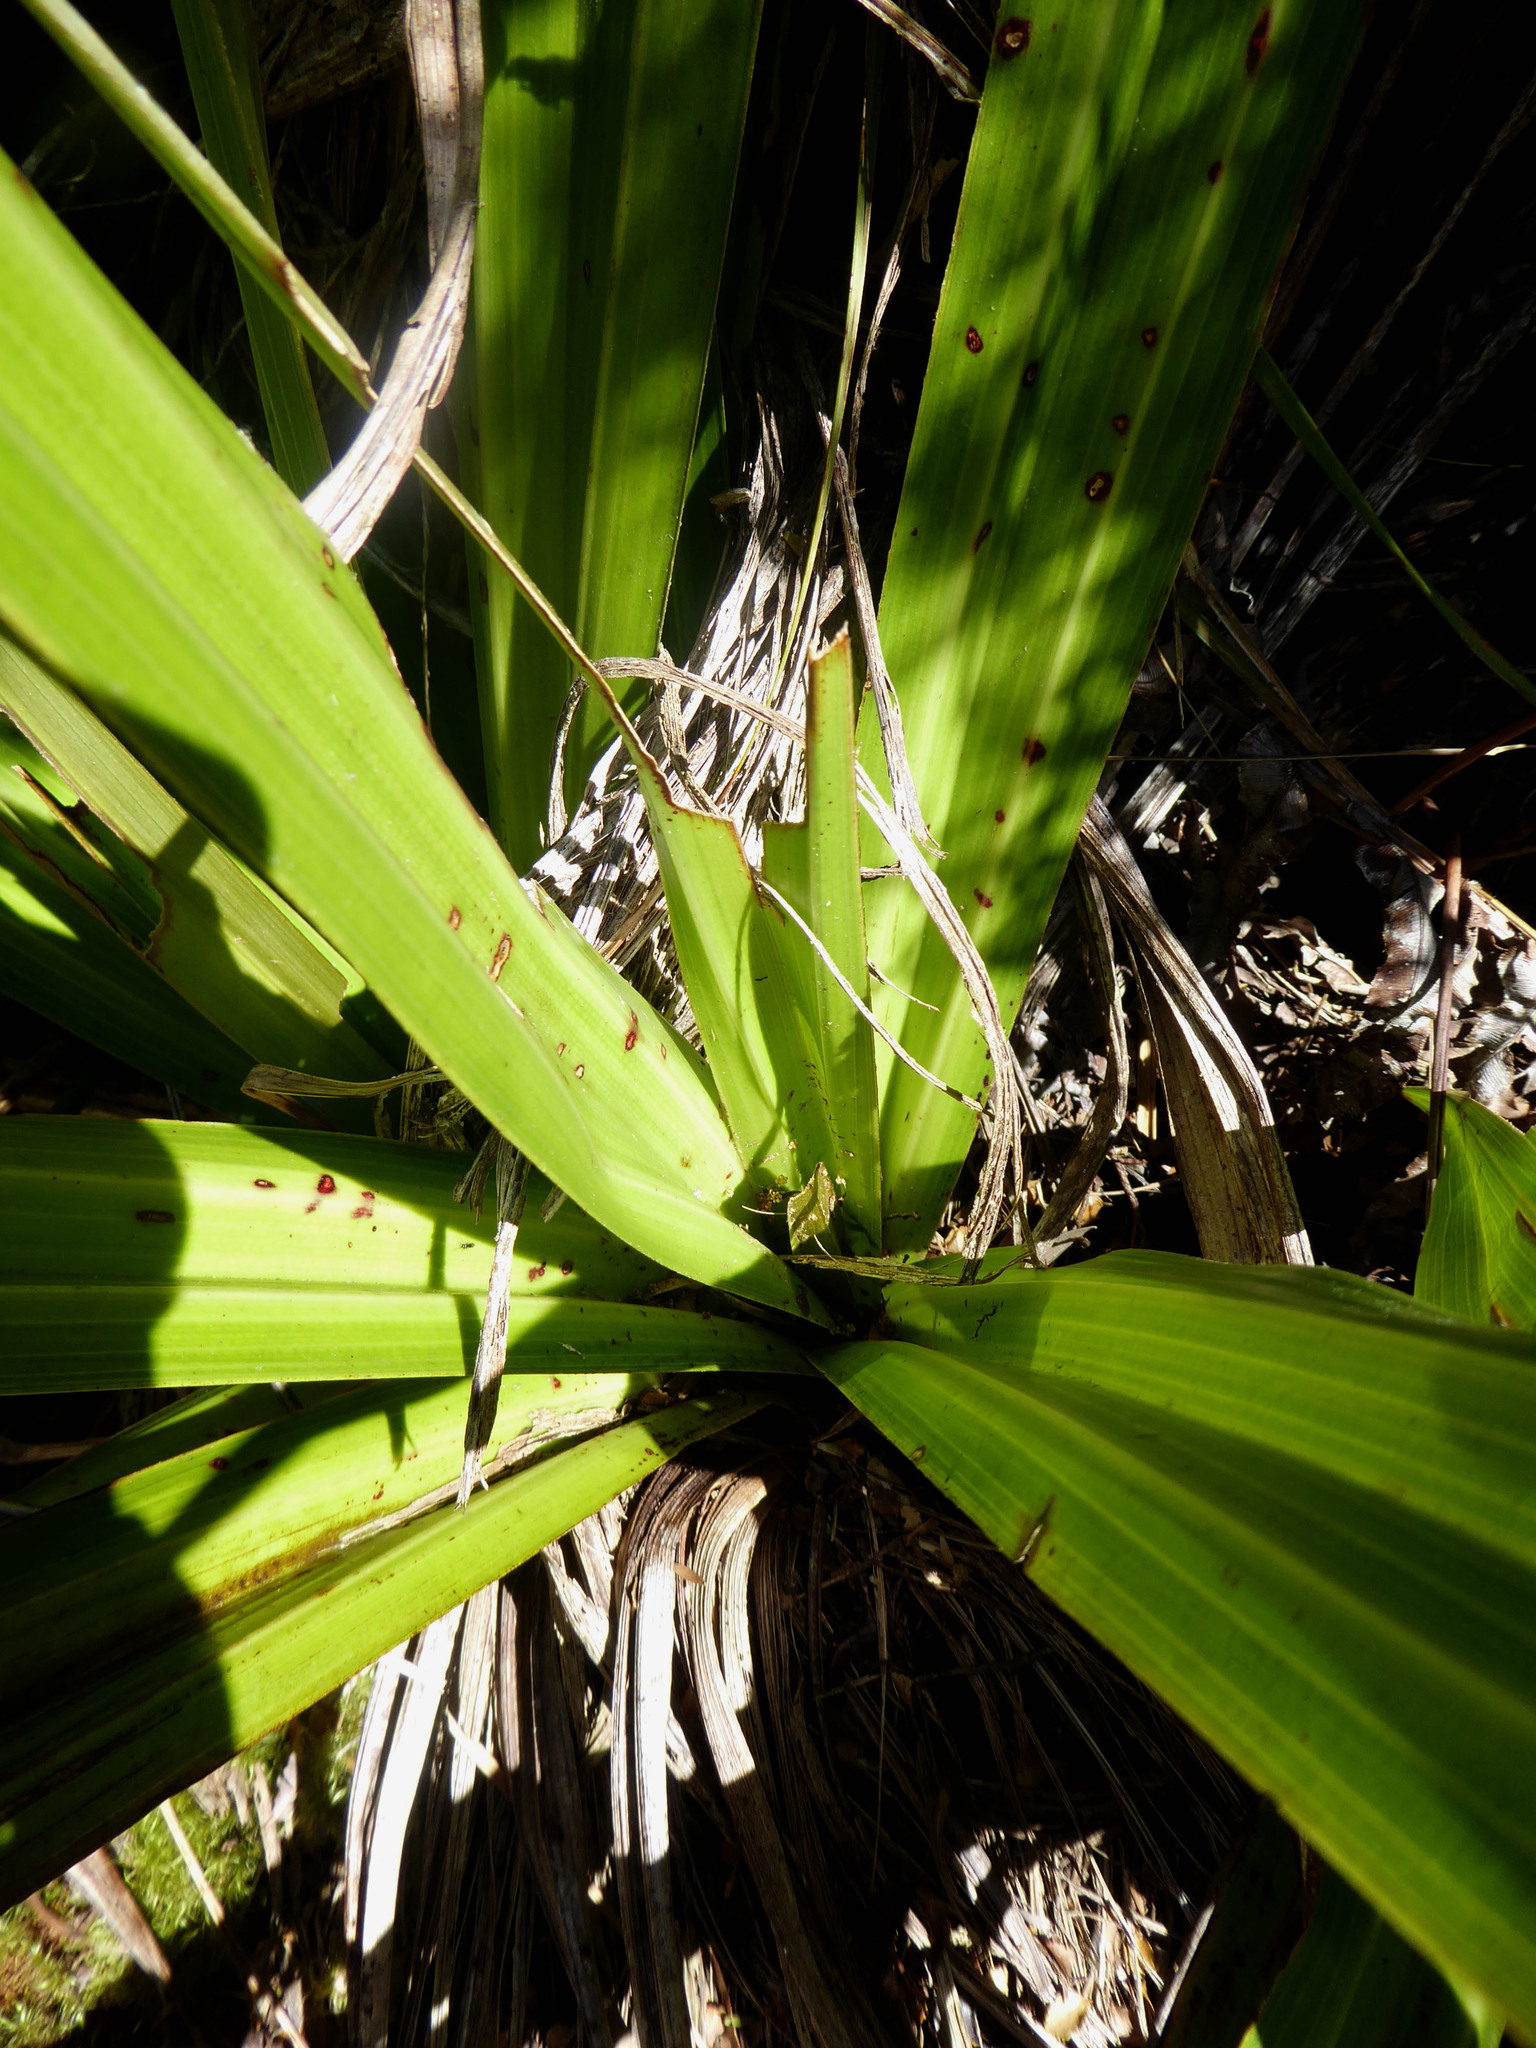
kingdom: Plantae
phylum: Tracheophyta
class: Liliopsida
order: Asparagales
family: Asteliaceae
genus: Astelia
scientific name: Astelia grandis
